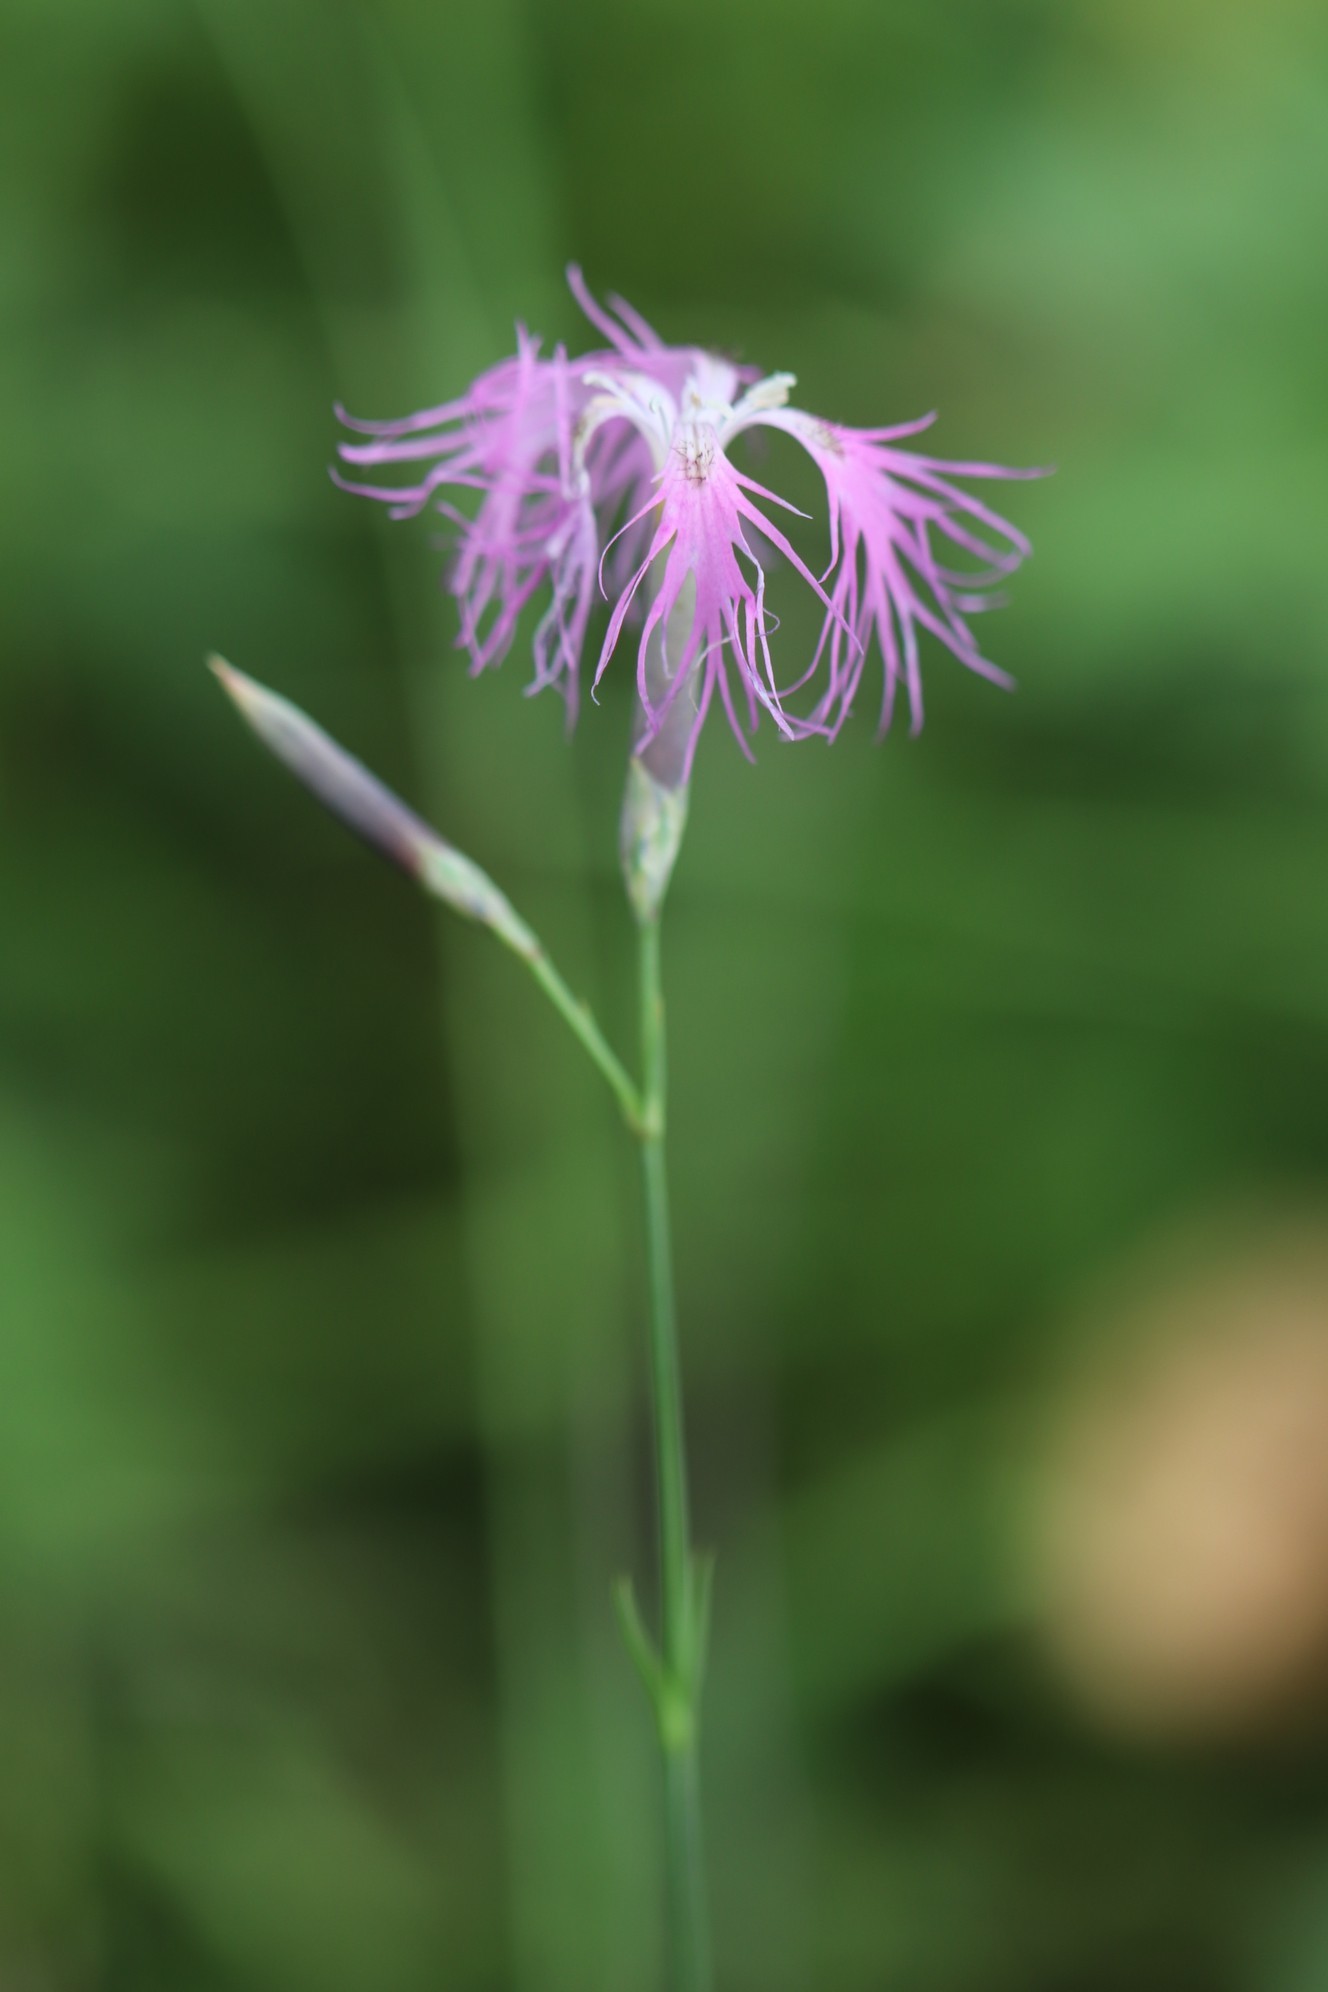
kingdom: Plantae
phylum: Tracheophyta
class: Magnoliopsida
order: Caryophyllales
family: Caryophyllaceae
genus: Dianthus
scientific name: Dianthus superbus
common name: Fringed pink
